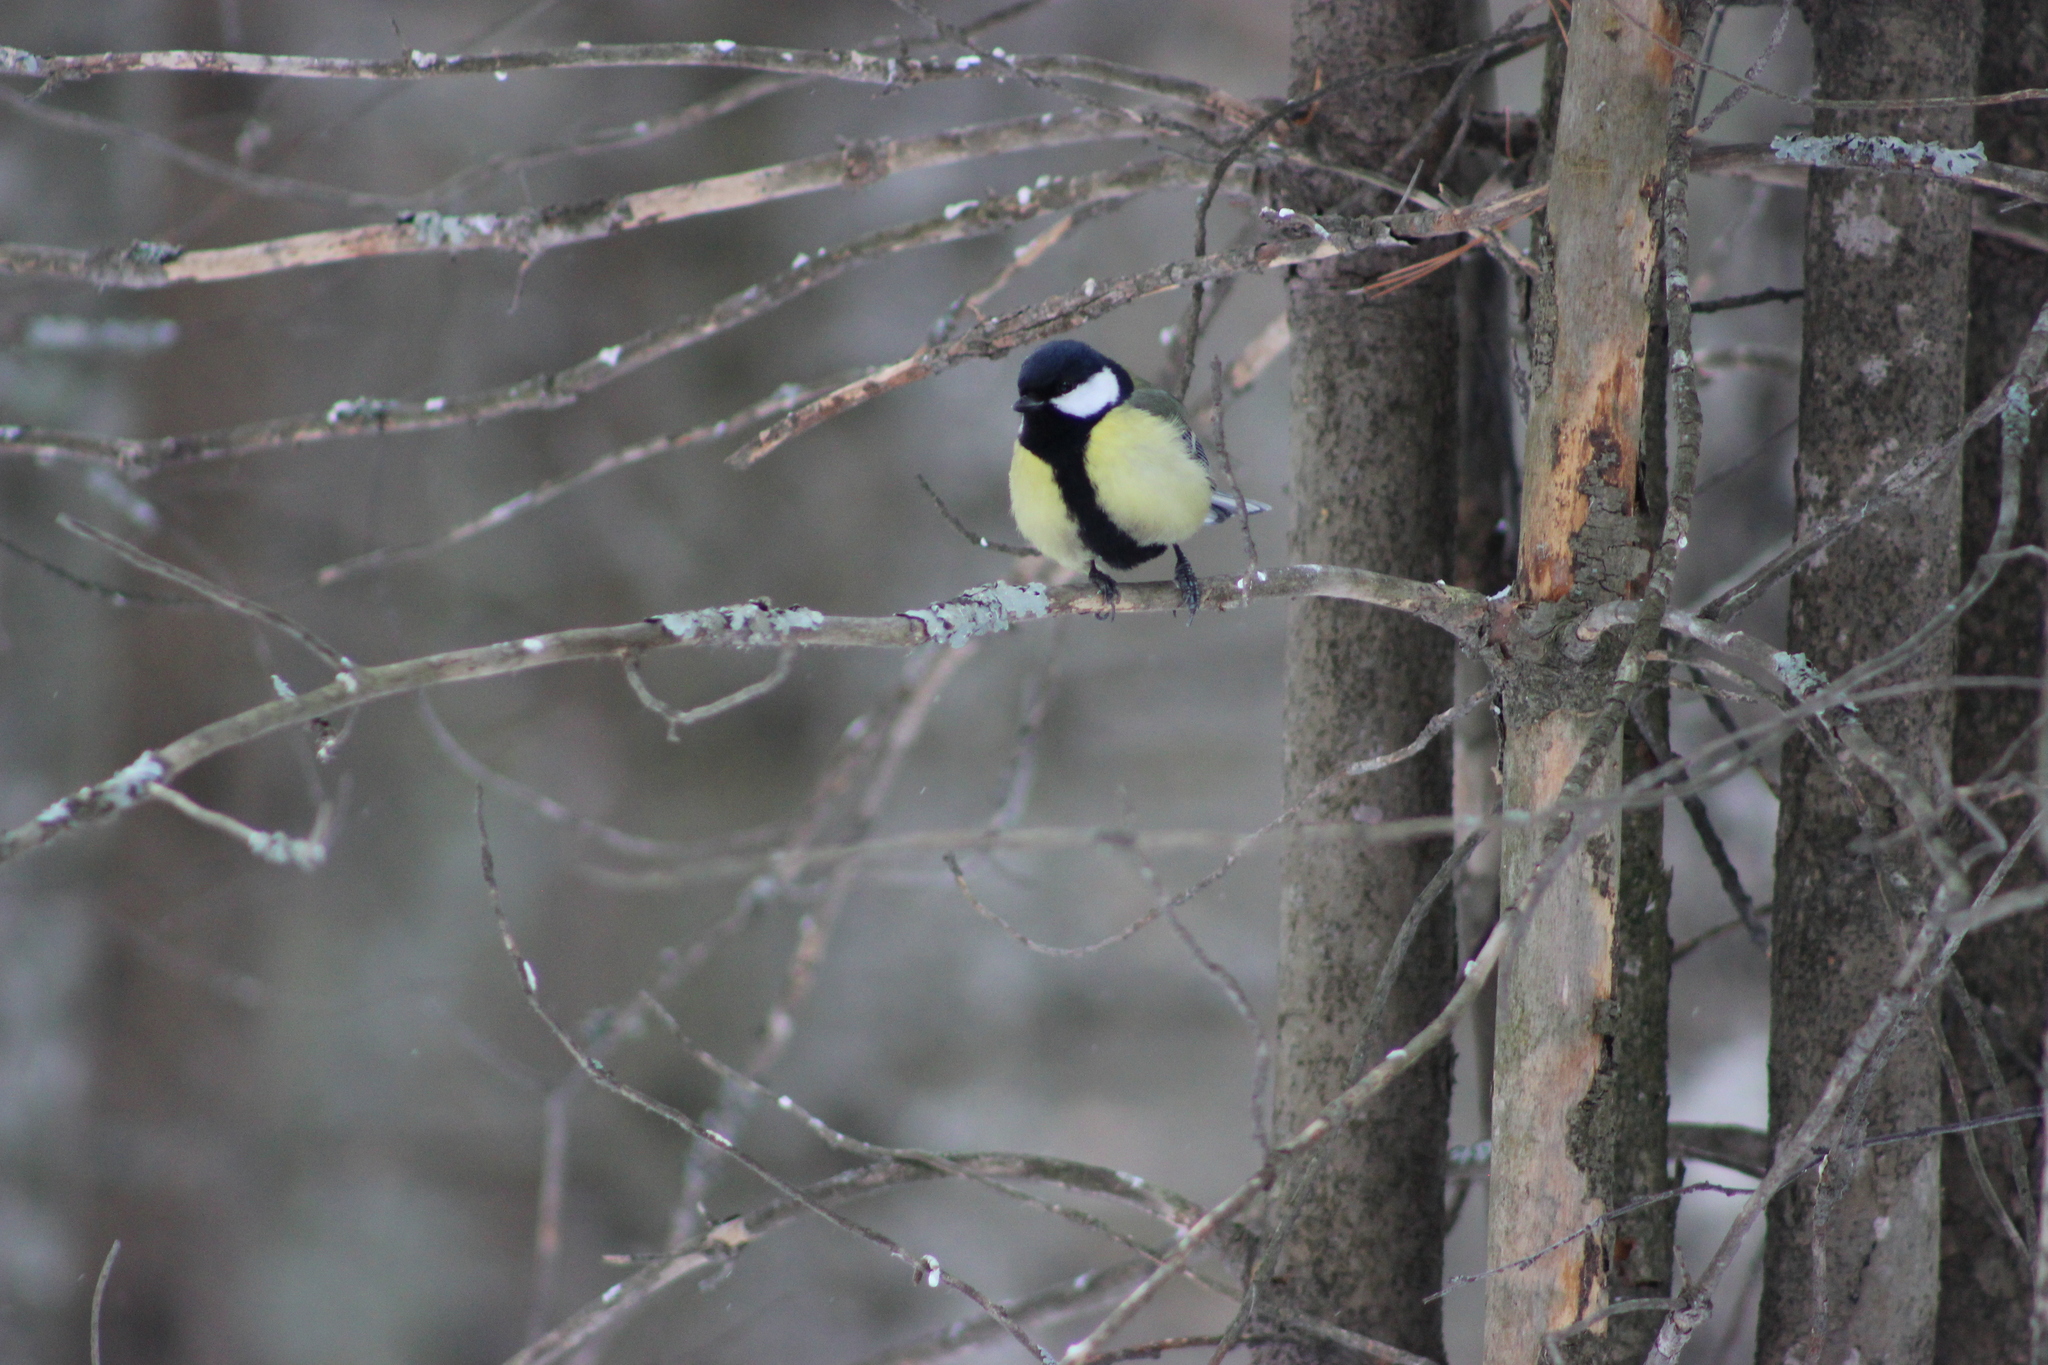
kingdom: Animalia
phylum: Chordata
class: Aves
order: Passeriformes
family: Paridae
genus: Parus
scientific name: Parus major
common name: Great tit
